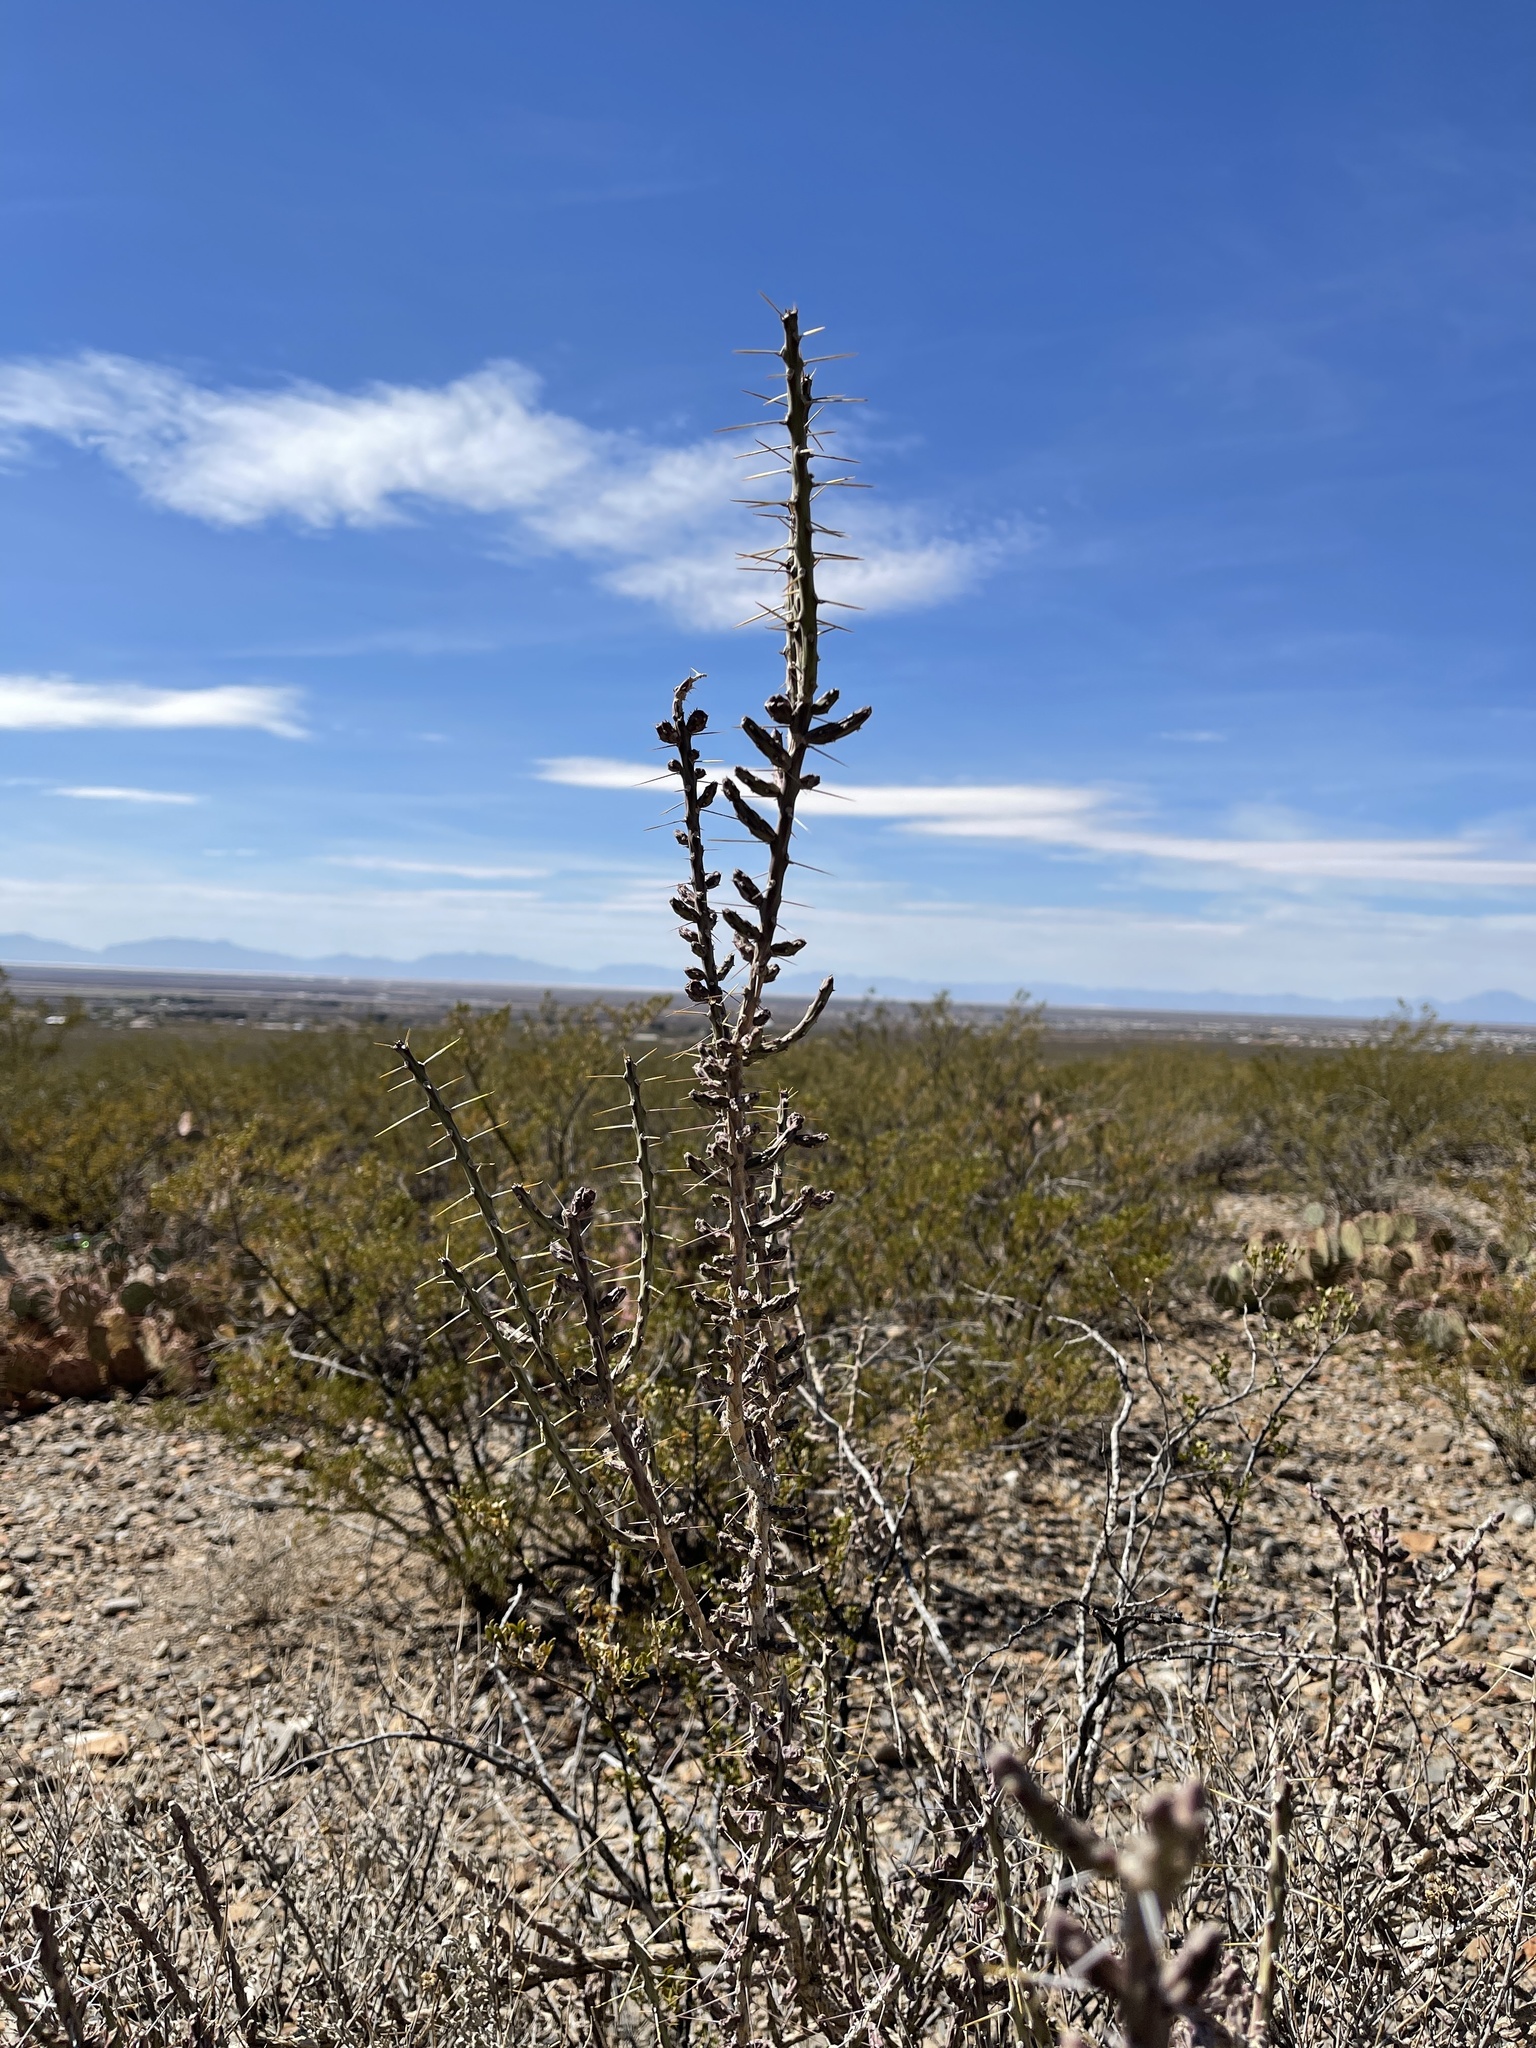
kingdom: Plantae
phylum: Tracheophyta
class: Magnoliopsida
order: Caryophyllales
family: Cactaceae
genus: Cylindropuntia
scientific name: Cylindropuntia leptocaulis
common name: Christmas cactus
